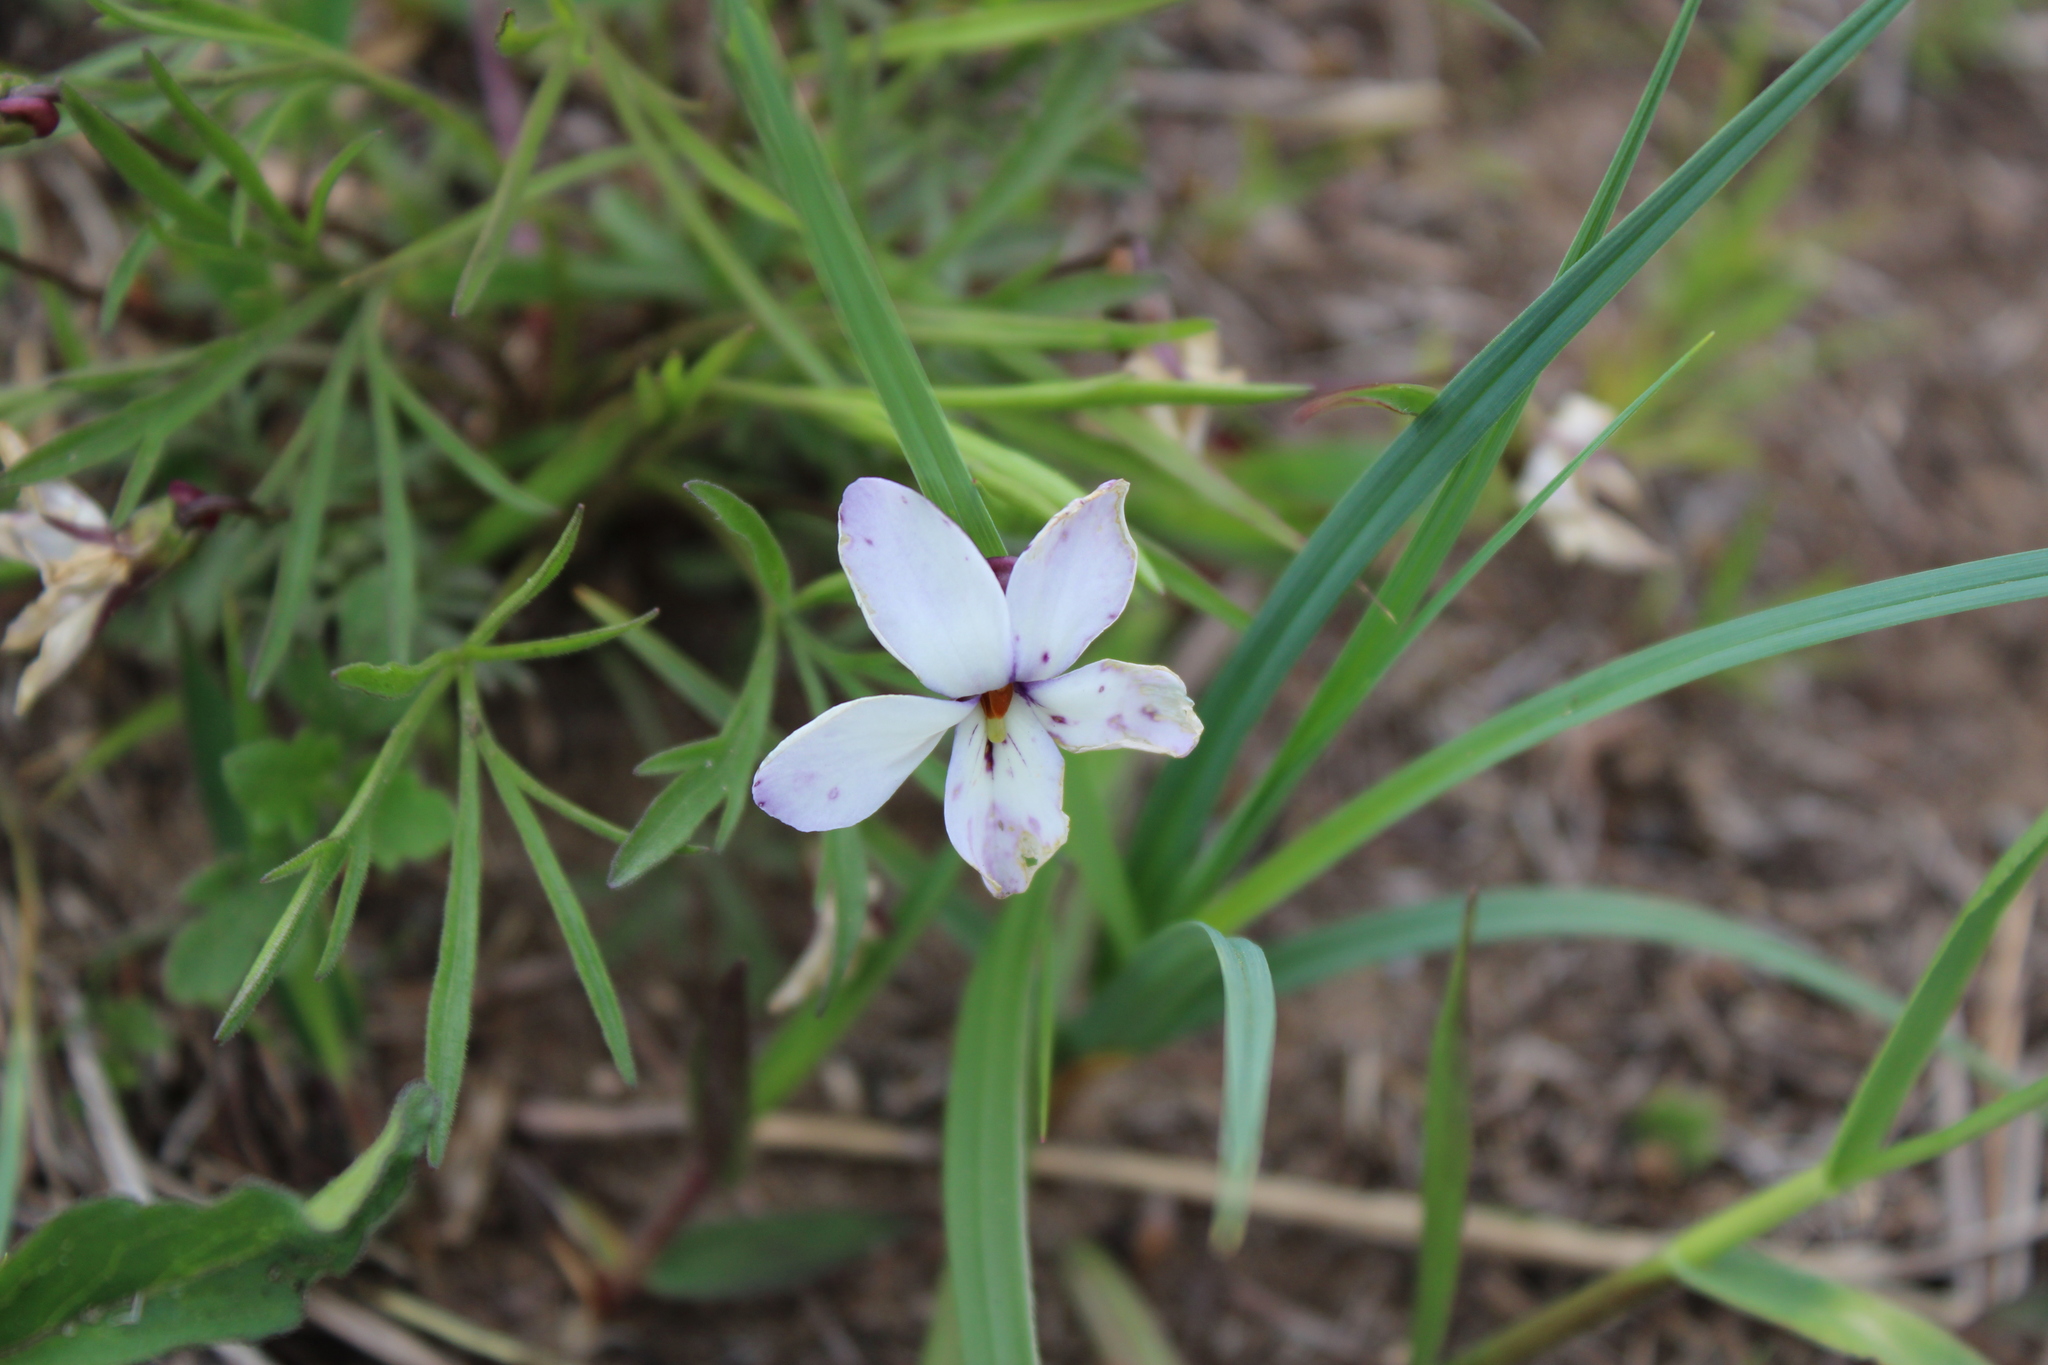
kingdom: Plantae
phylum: Tracheophyta
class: Magnoliopsida
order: Malpighiales
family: Violaceae
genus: Viola
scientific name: Viola pedata
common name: Pansy violet
